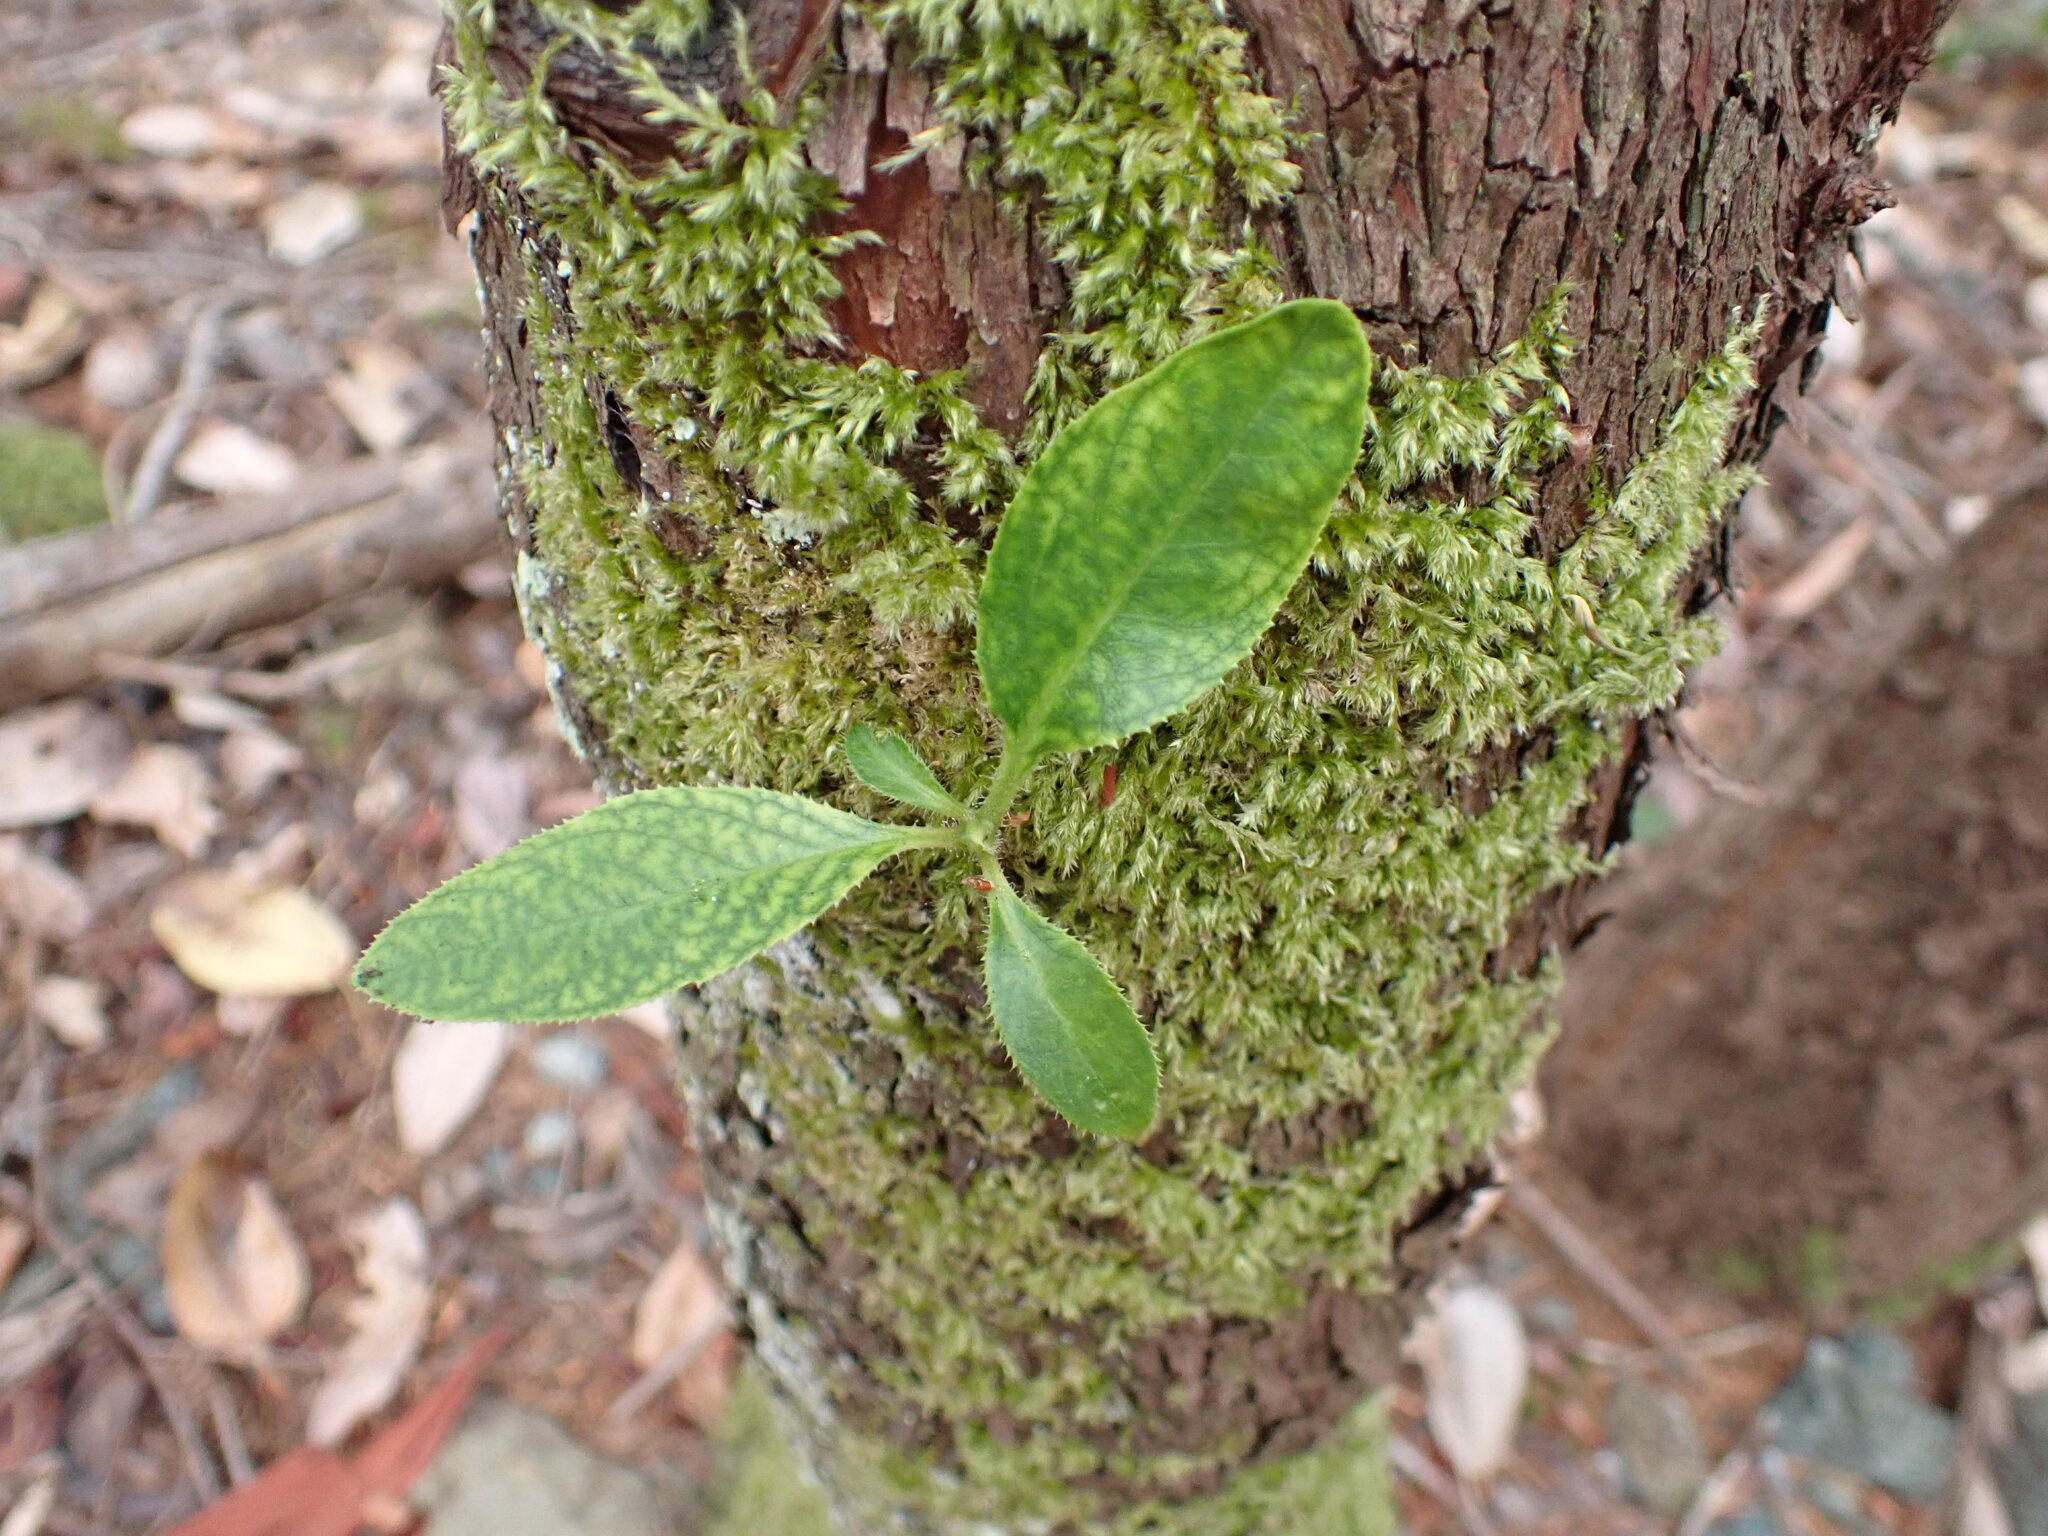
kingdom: Plantae
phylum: Tracheophyta
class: Magnoliopsida
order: Ericales
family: Ericaceae
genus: Arbutus
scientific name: Arbutus menziesii
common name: Pacific madrone
